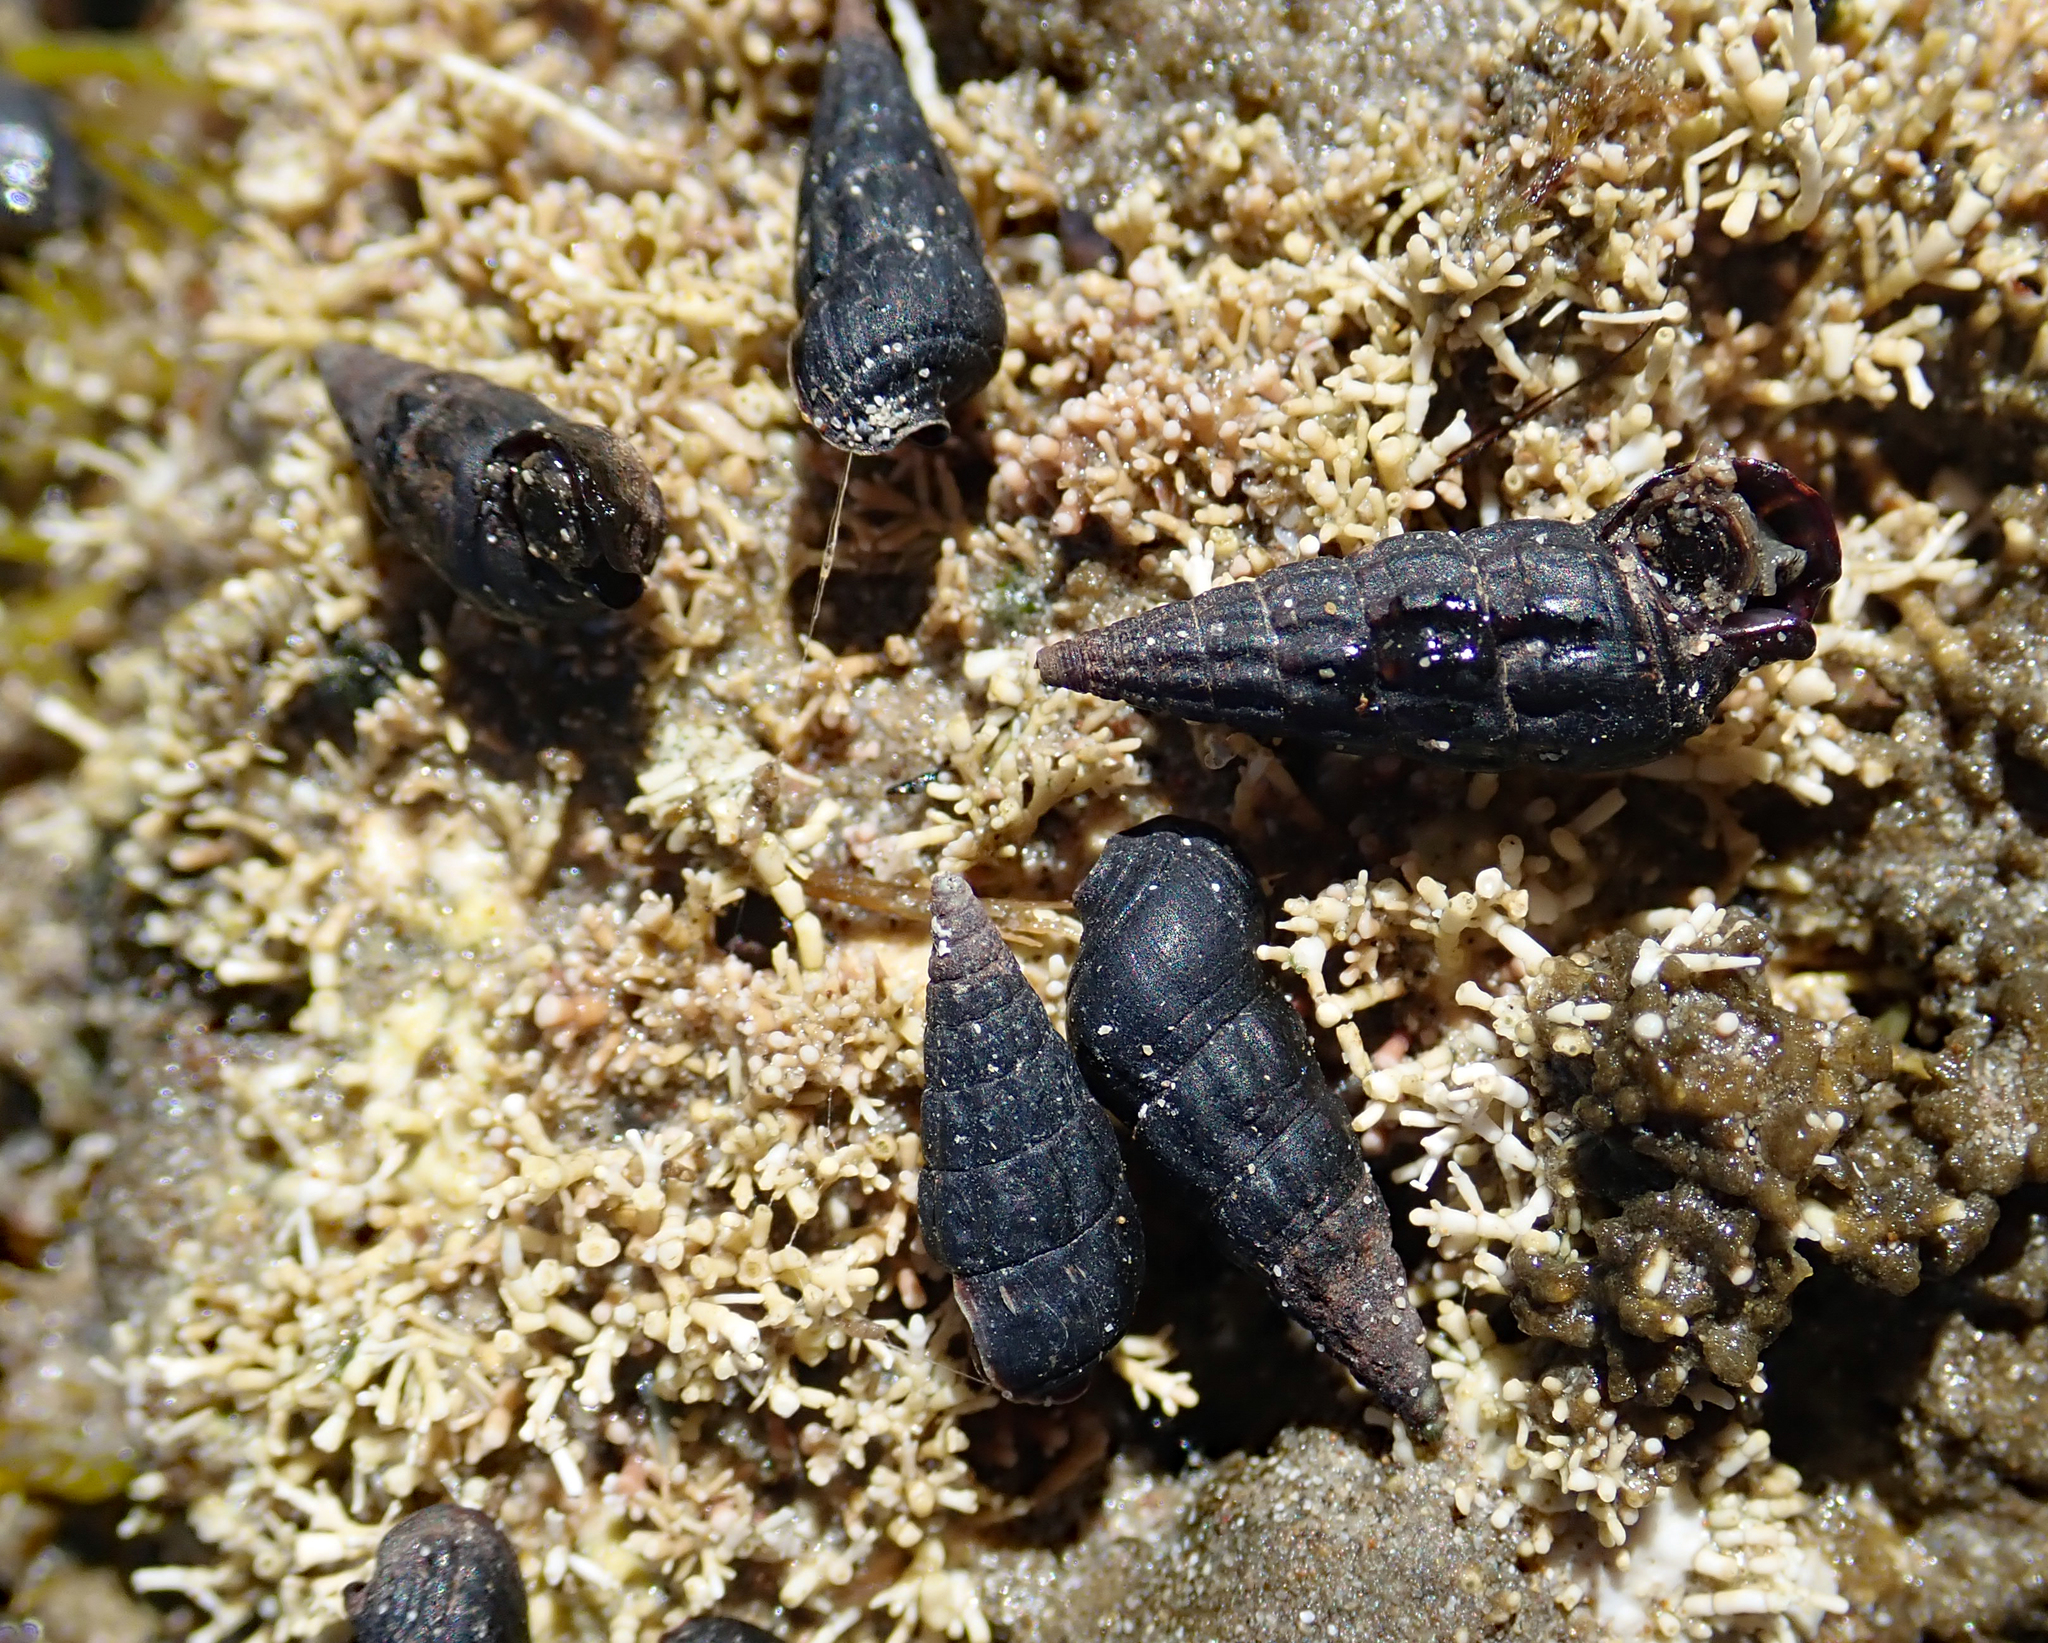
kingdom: Animalia
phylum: Mollusca
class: Gastropoda
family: Batillariidae
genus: Zeacumantus
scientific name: Zeacumantus subcarinatus
